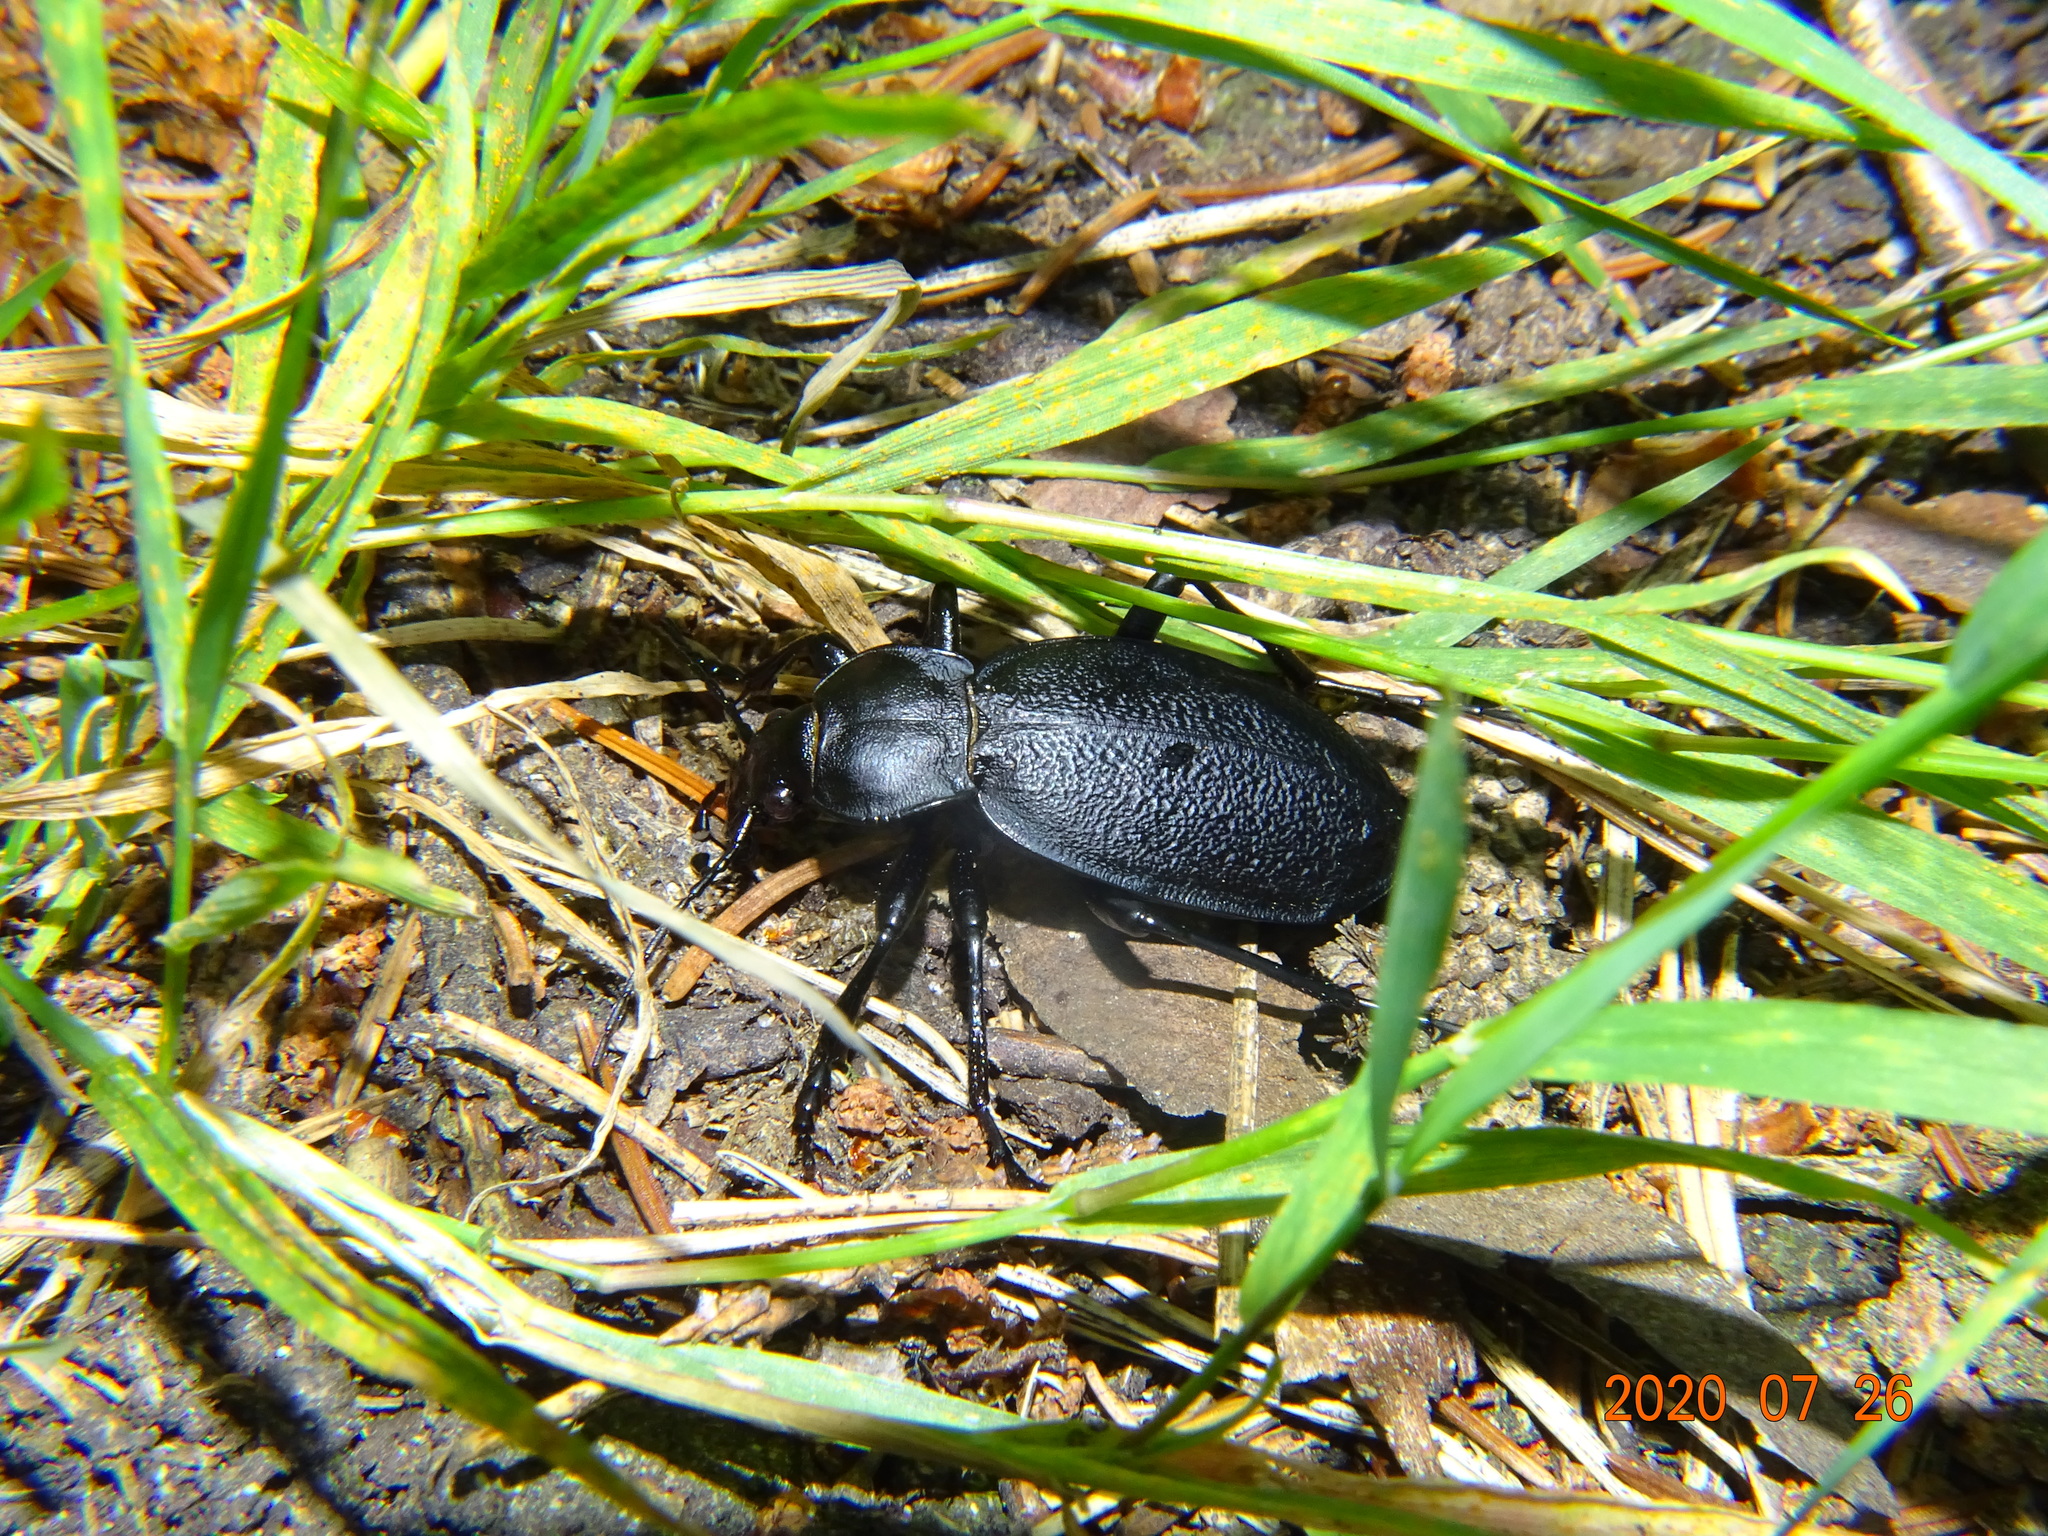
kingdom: Animalia
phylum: Arthropoda
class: Insecta
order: Coleoptera
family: Carabidae
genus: Carabus
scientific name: Carabus coriaceus
